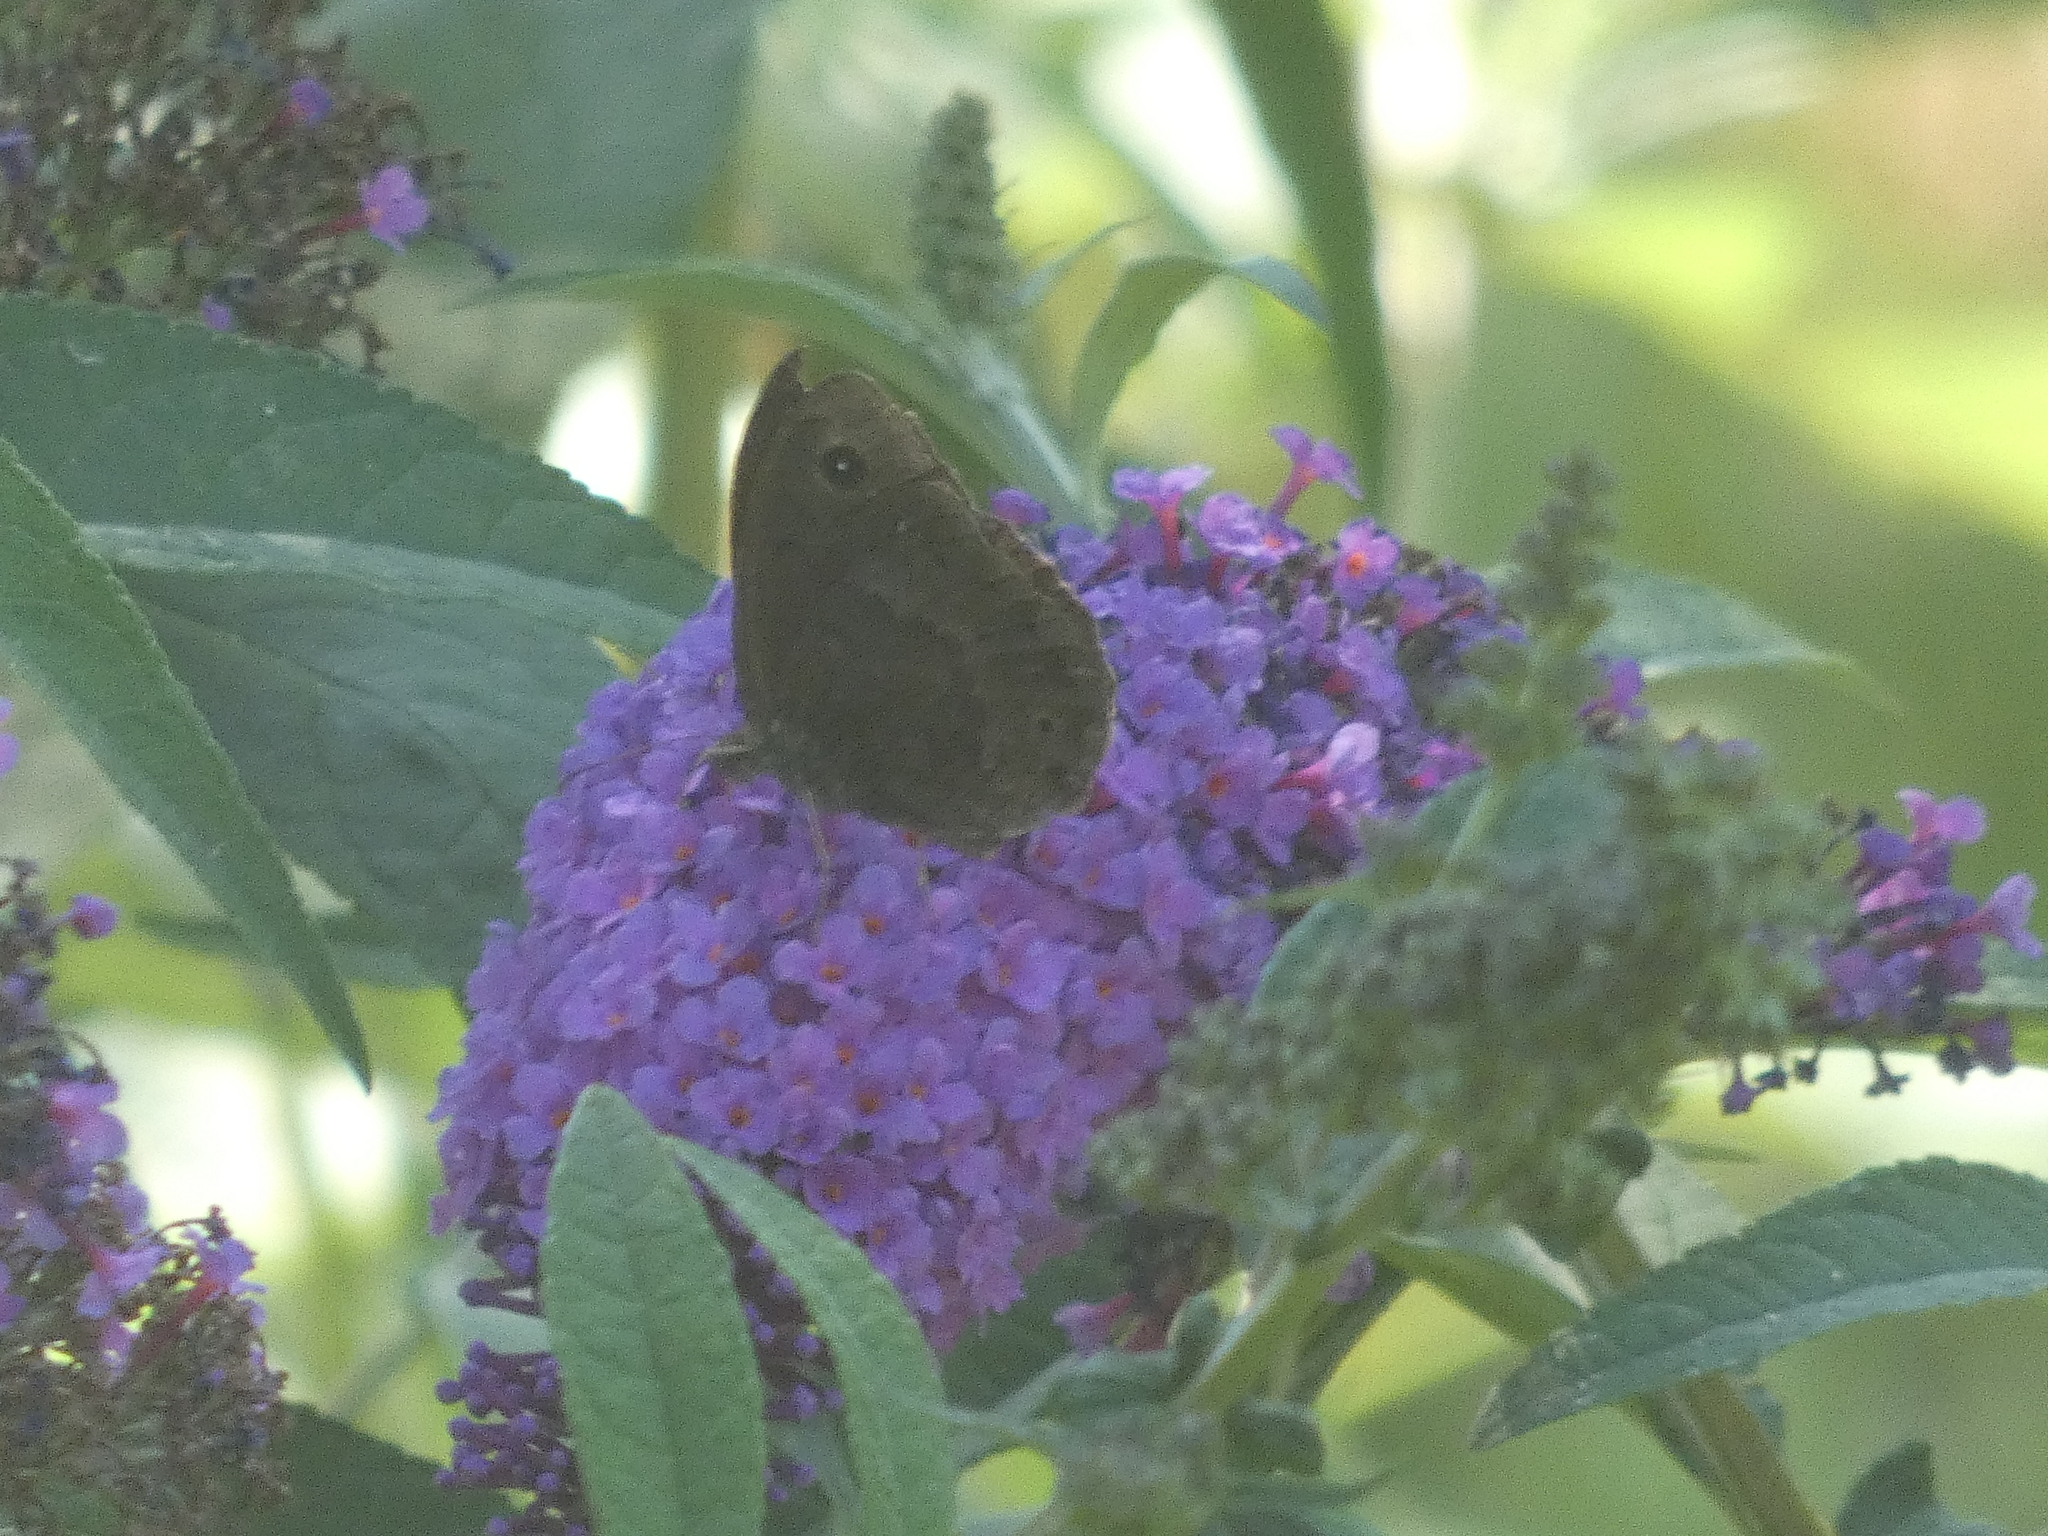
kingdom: Animalia
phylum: Arthropoda
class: Insecta
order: Lepidoptera
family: Nymphalidae
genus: Satyrus
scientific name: Satyrus ferula
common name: Great sooty satyr
